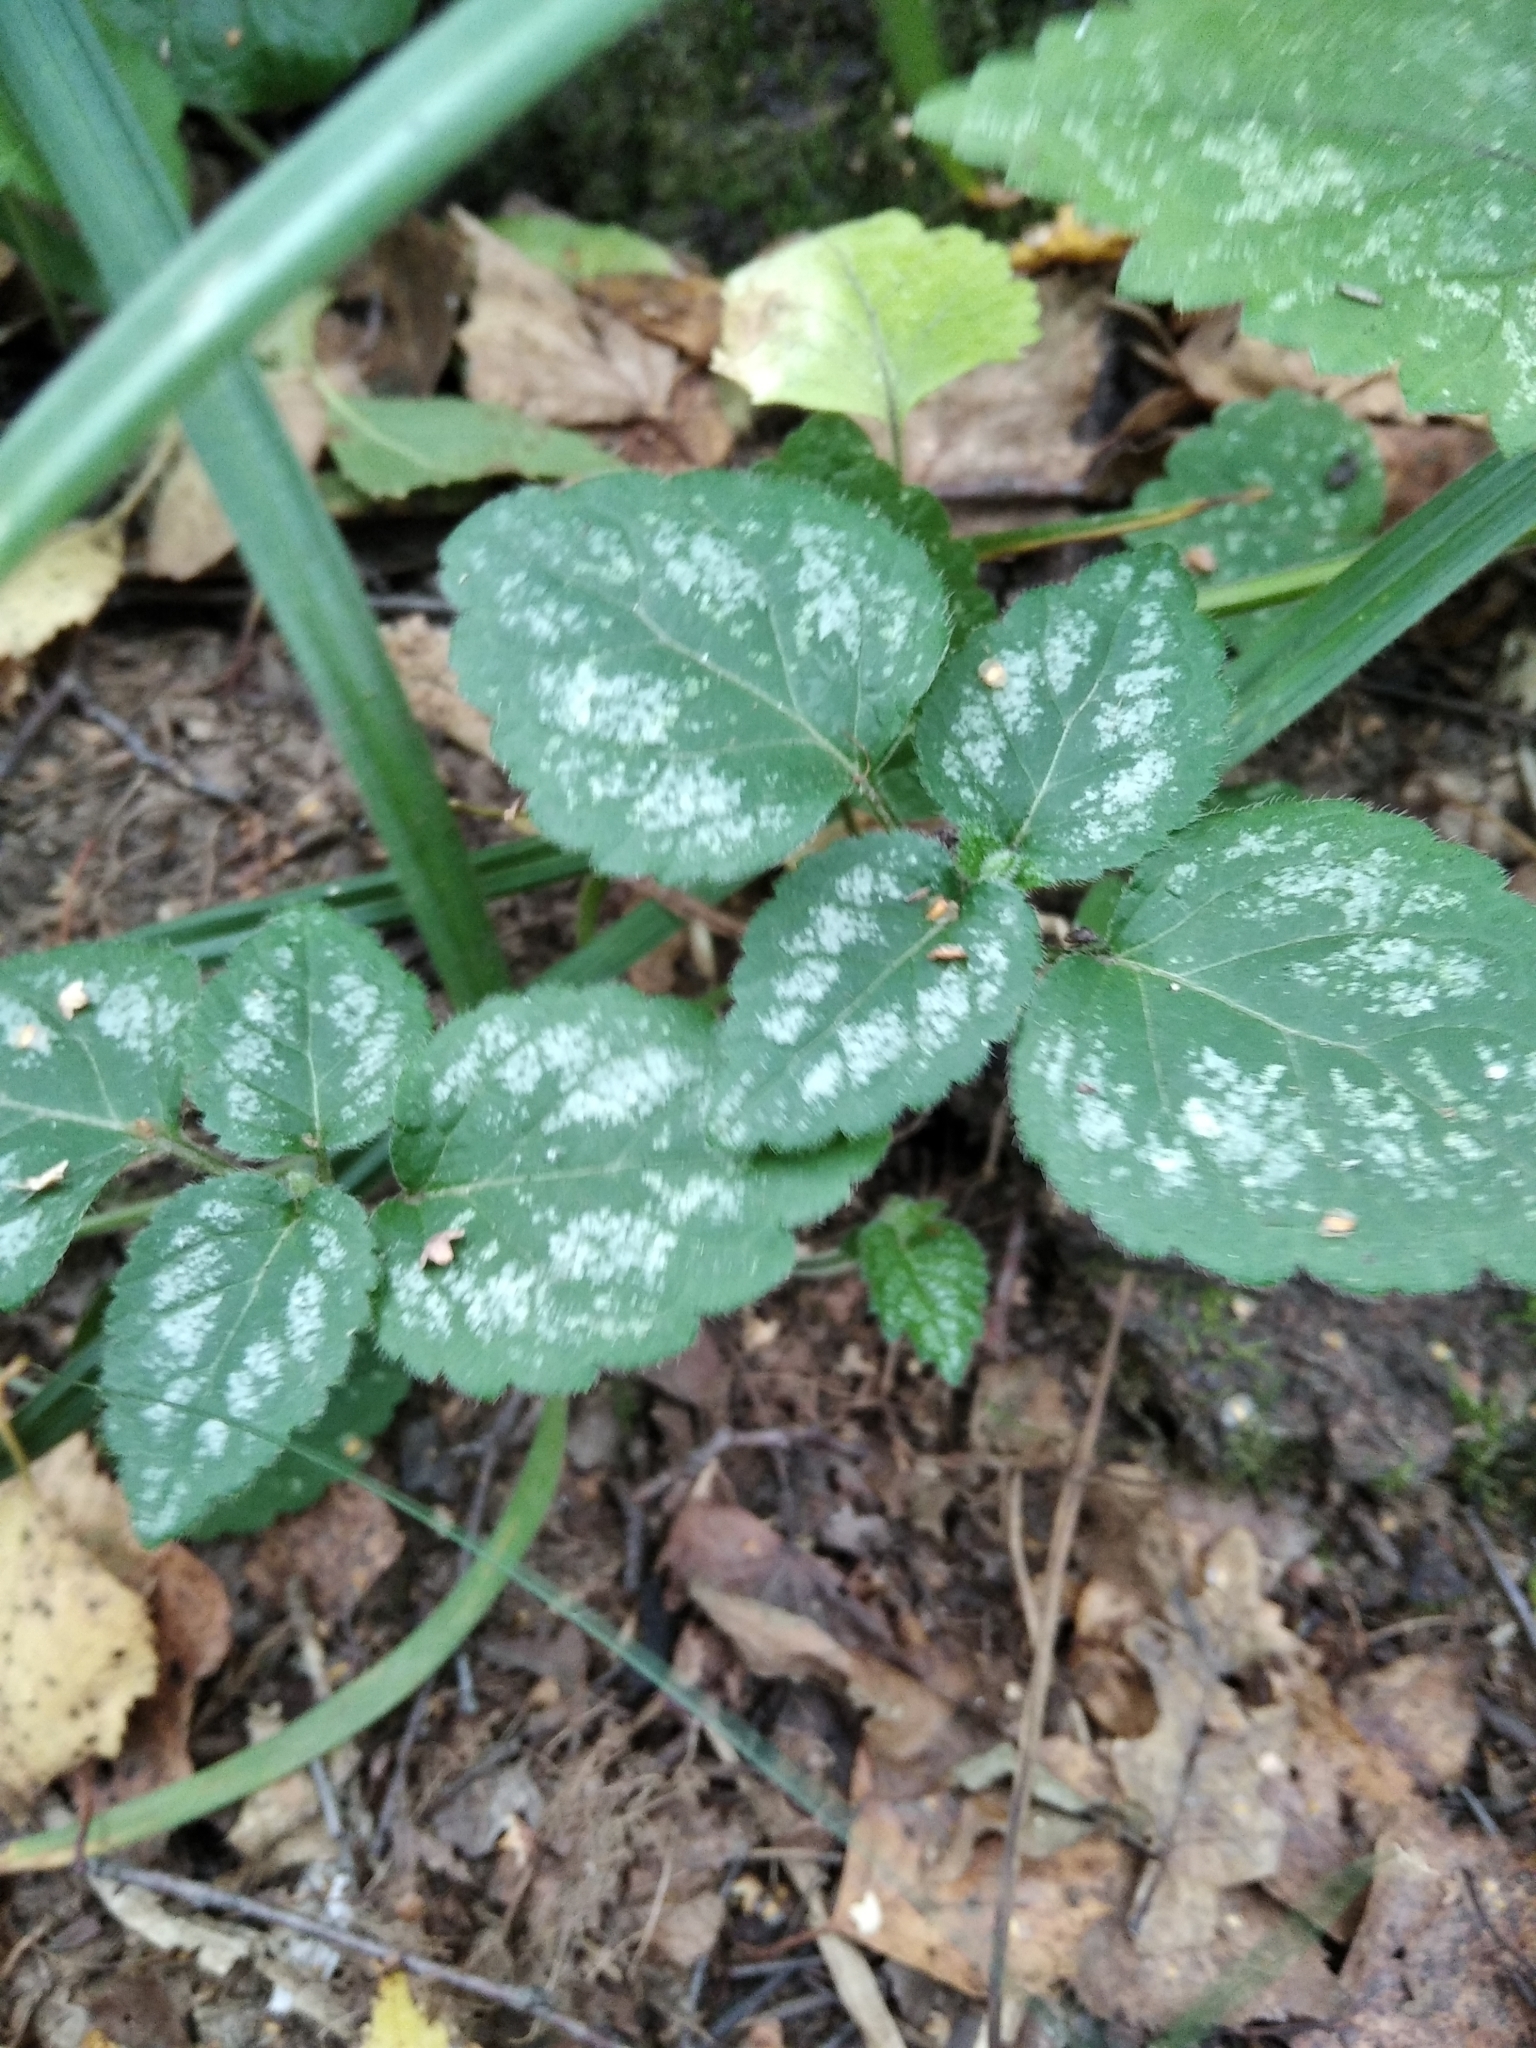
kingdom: Plantae
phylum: Tracheophyta
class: Magnoliopsida
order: Lamiales
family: Lamiaceae
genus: Lamium
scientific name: Lamium galeobdolon
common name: Yellow archangel
